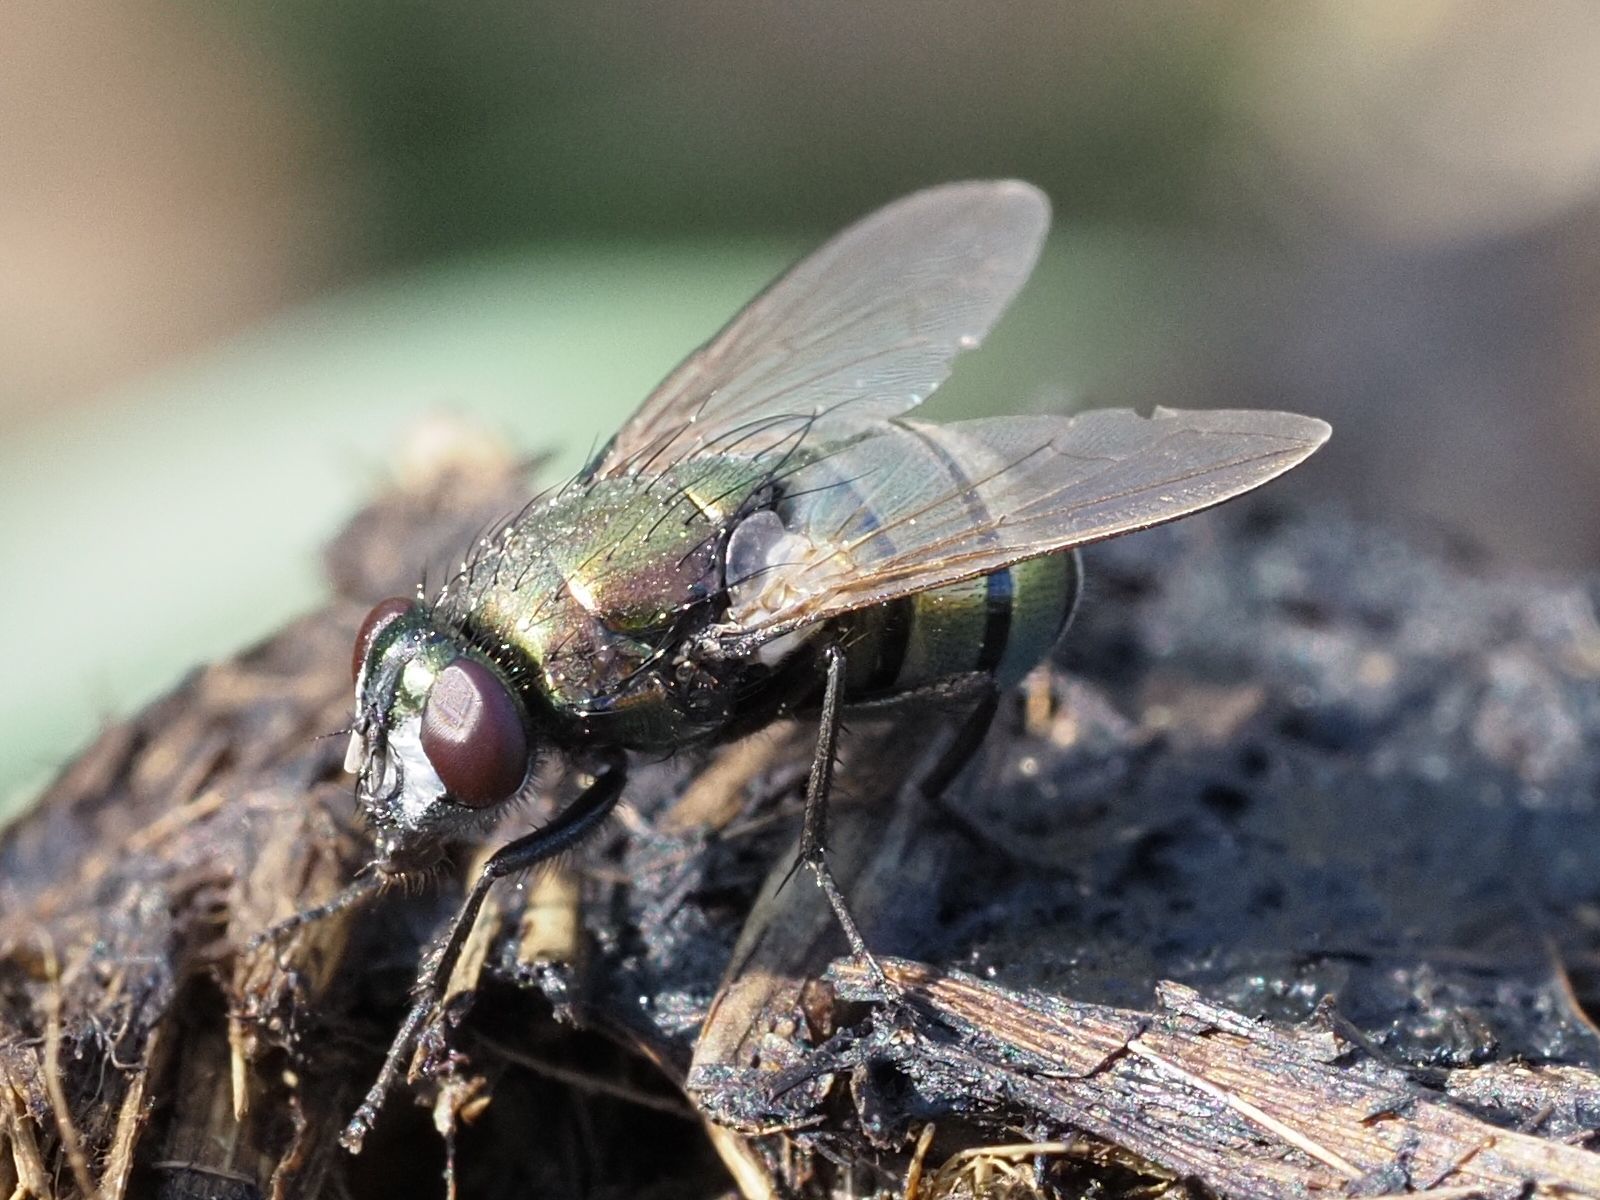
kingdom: Animalia
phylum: Arthropoda
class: Insecta
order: Diptera
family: Muscidae
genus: Neomyia
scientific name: Neomyia cornicina
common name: House fly
